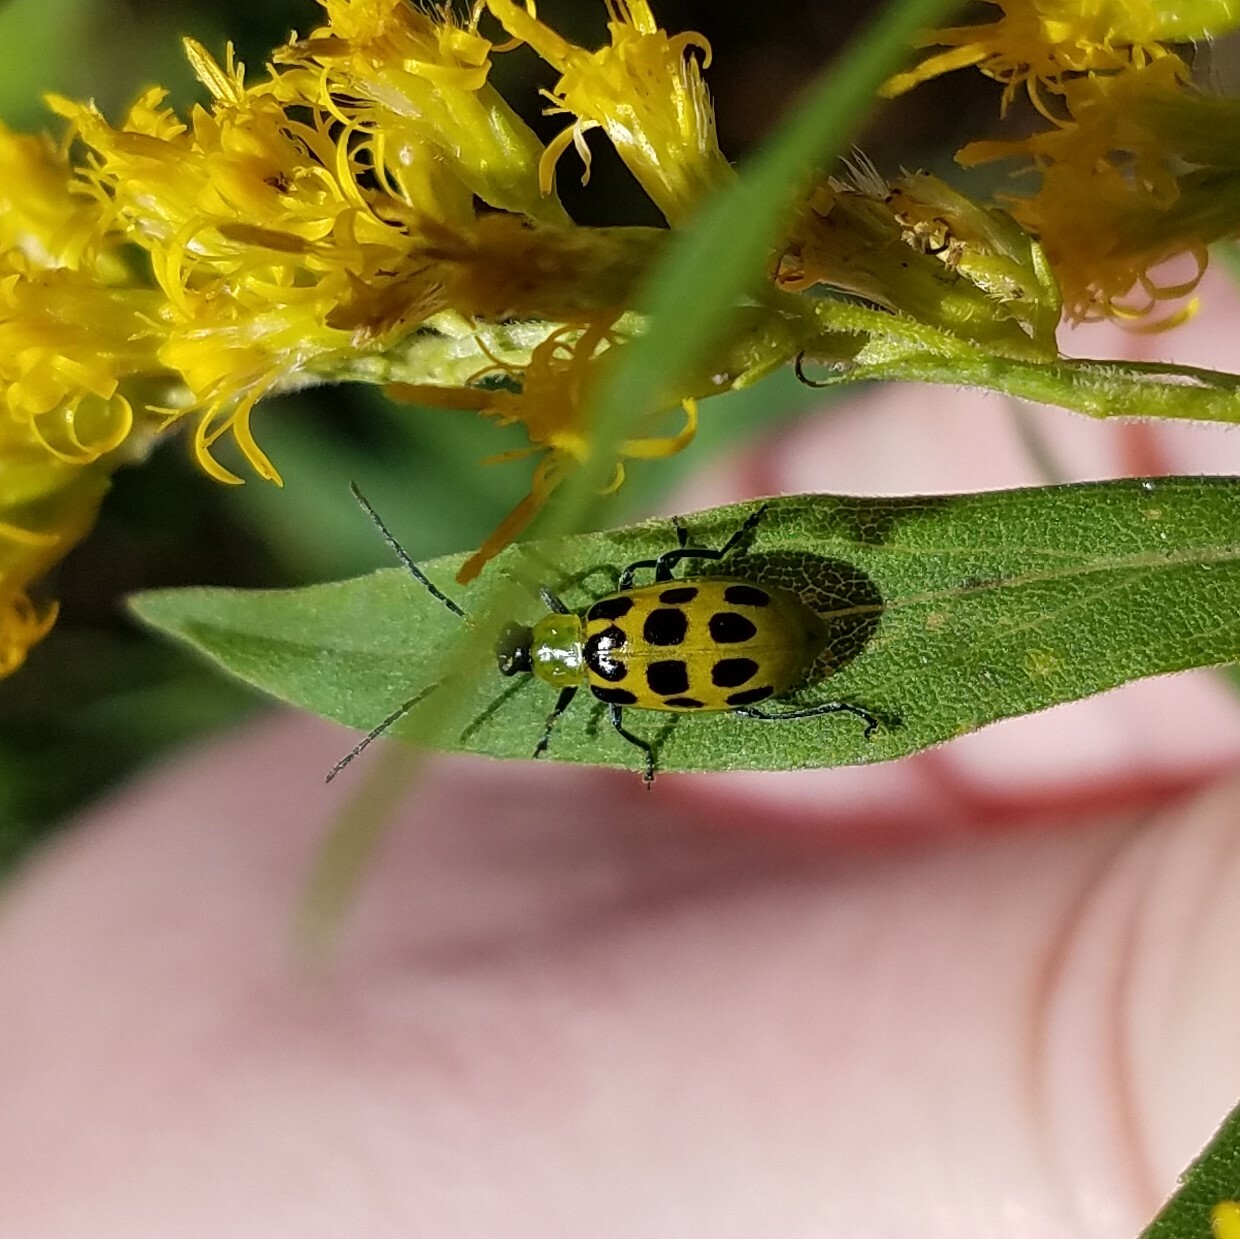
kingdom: Animalia
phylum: Arthropoda
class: Insecta
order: Coleoptera
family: Chrysomelidae
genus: Diabrotica
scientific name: Diabrotica undecimpunctata
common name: Spotted cucumber beetle
